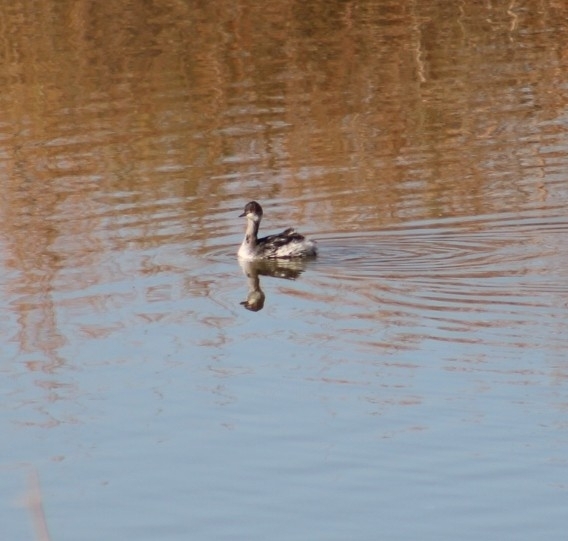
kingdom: Animalia
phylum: Chordata
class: Aves
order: Podicipediformes
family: Podicipedidae
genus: Podiceps
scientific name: Podiceps nigricollis
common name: Black-necked grebe
